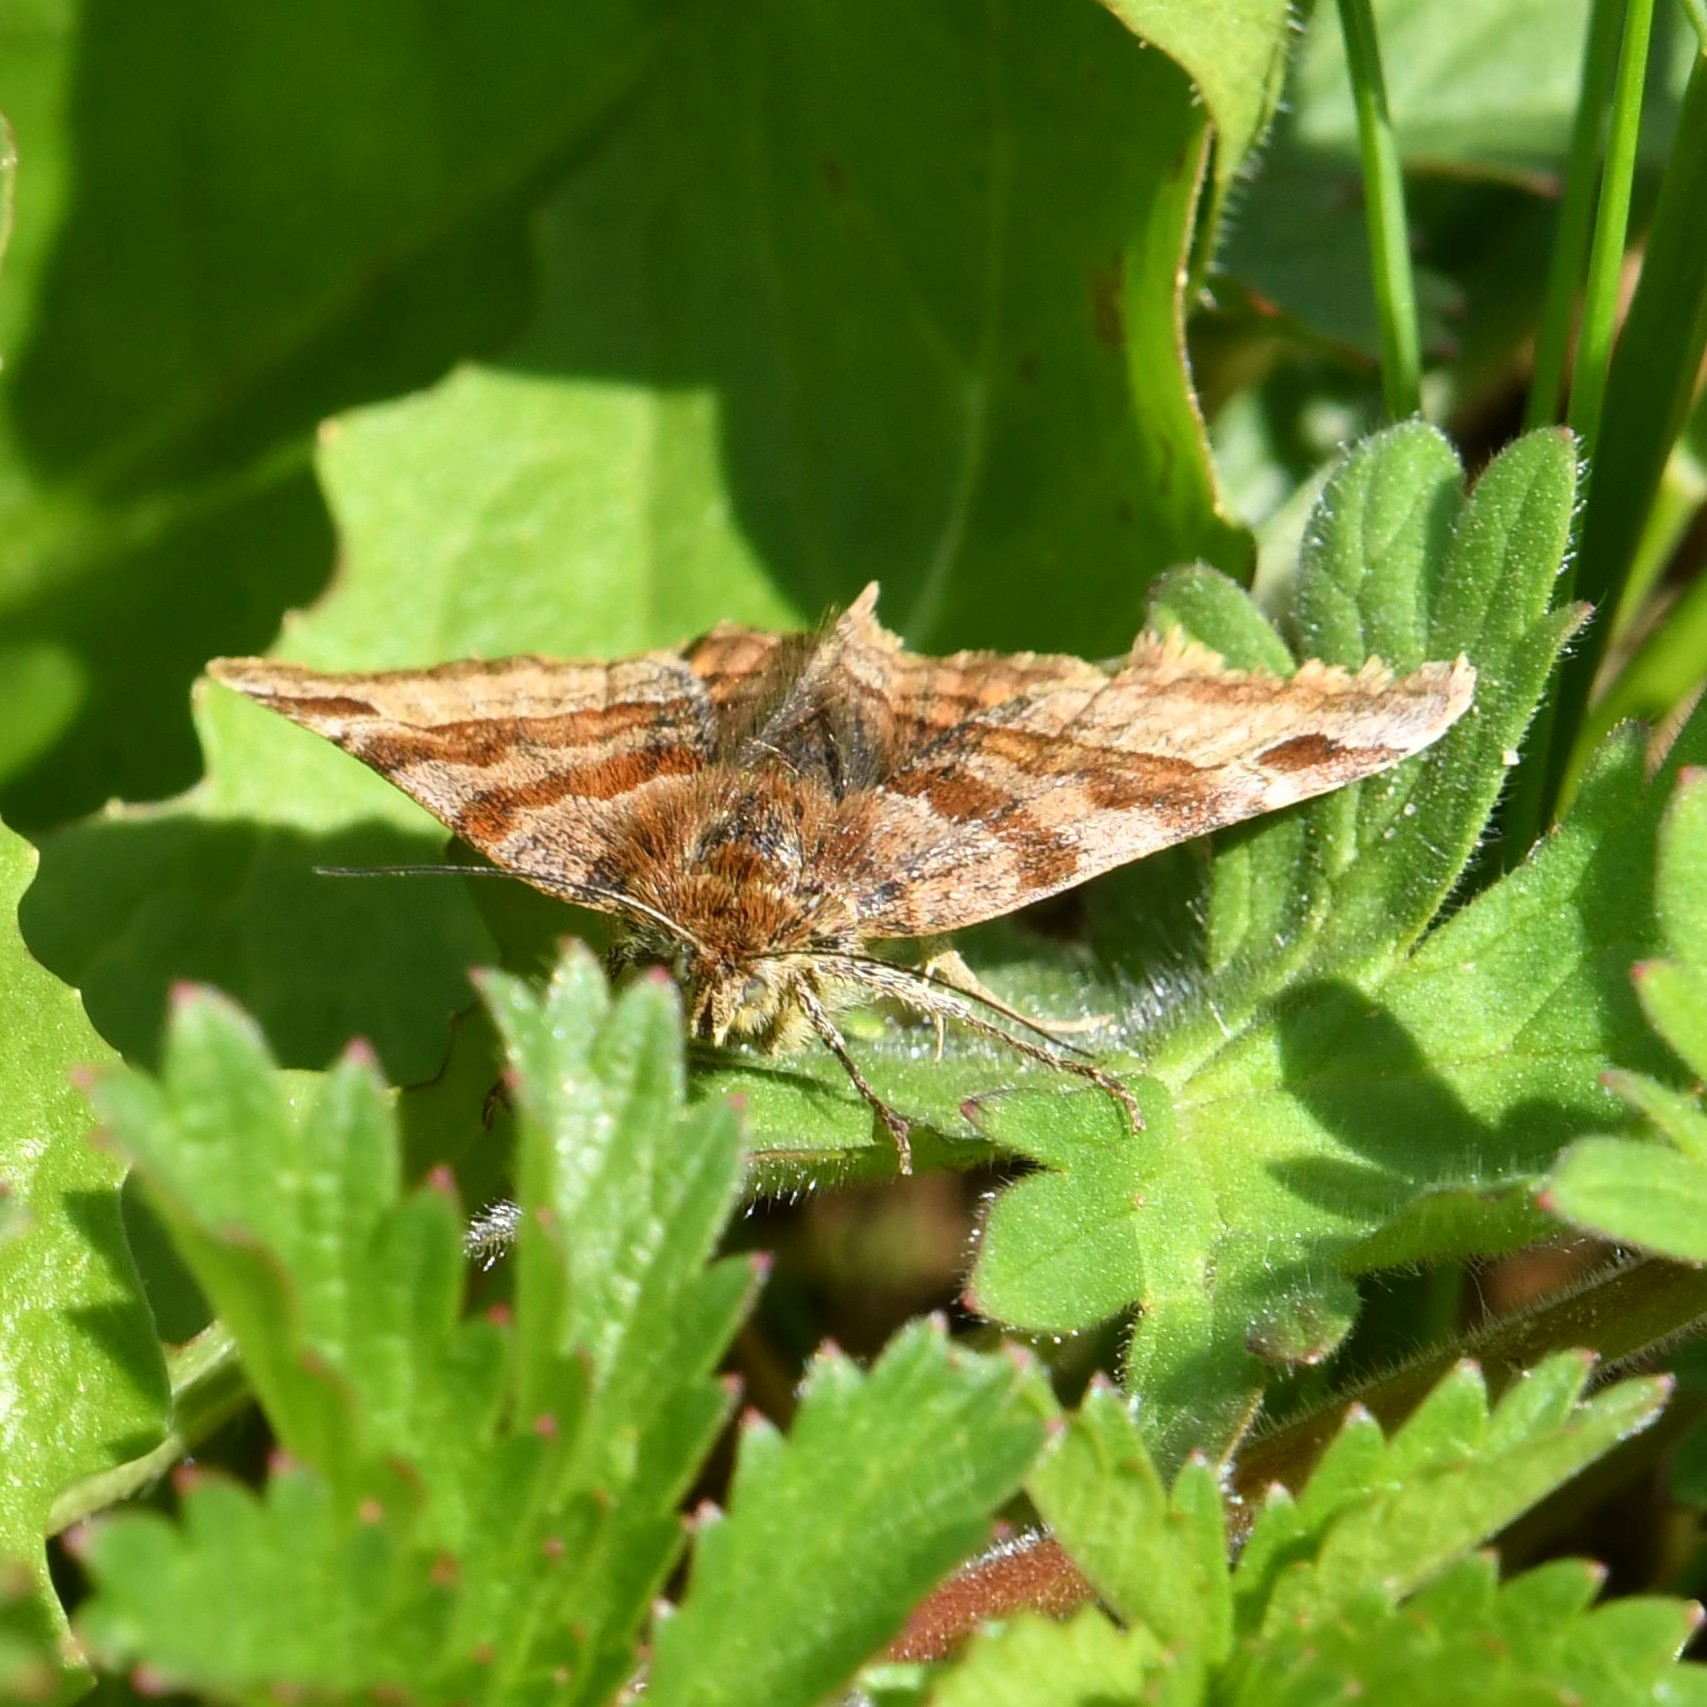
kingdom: Animalia
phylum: Arthropoda
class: Insecta
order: Lepidoptera
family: Erebidae
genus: Euclidia
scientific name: Euclidia glyphica
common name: Burnet companion
